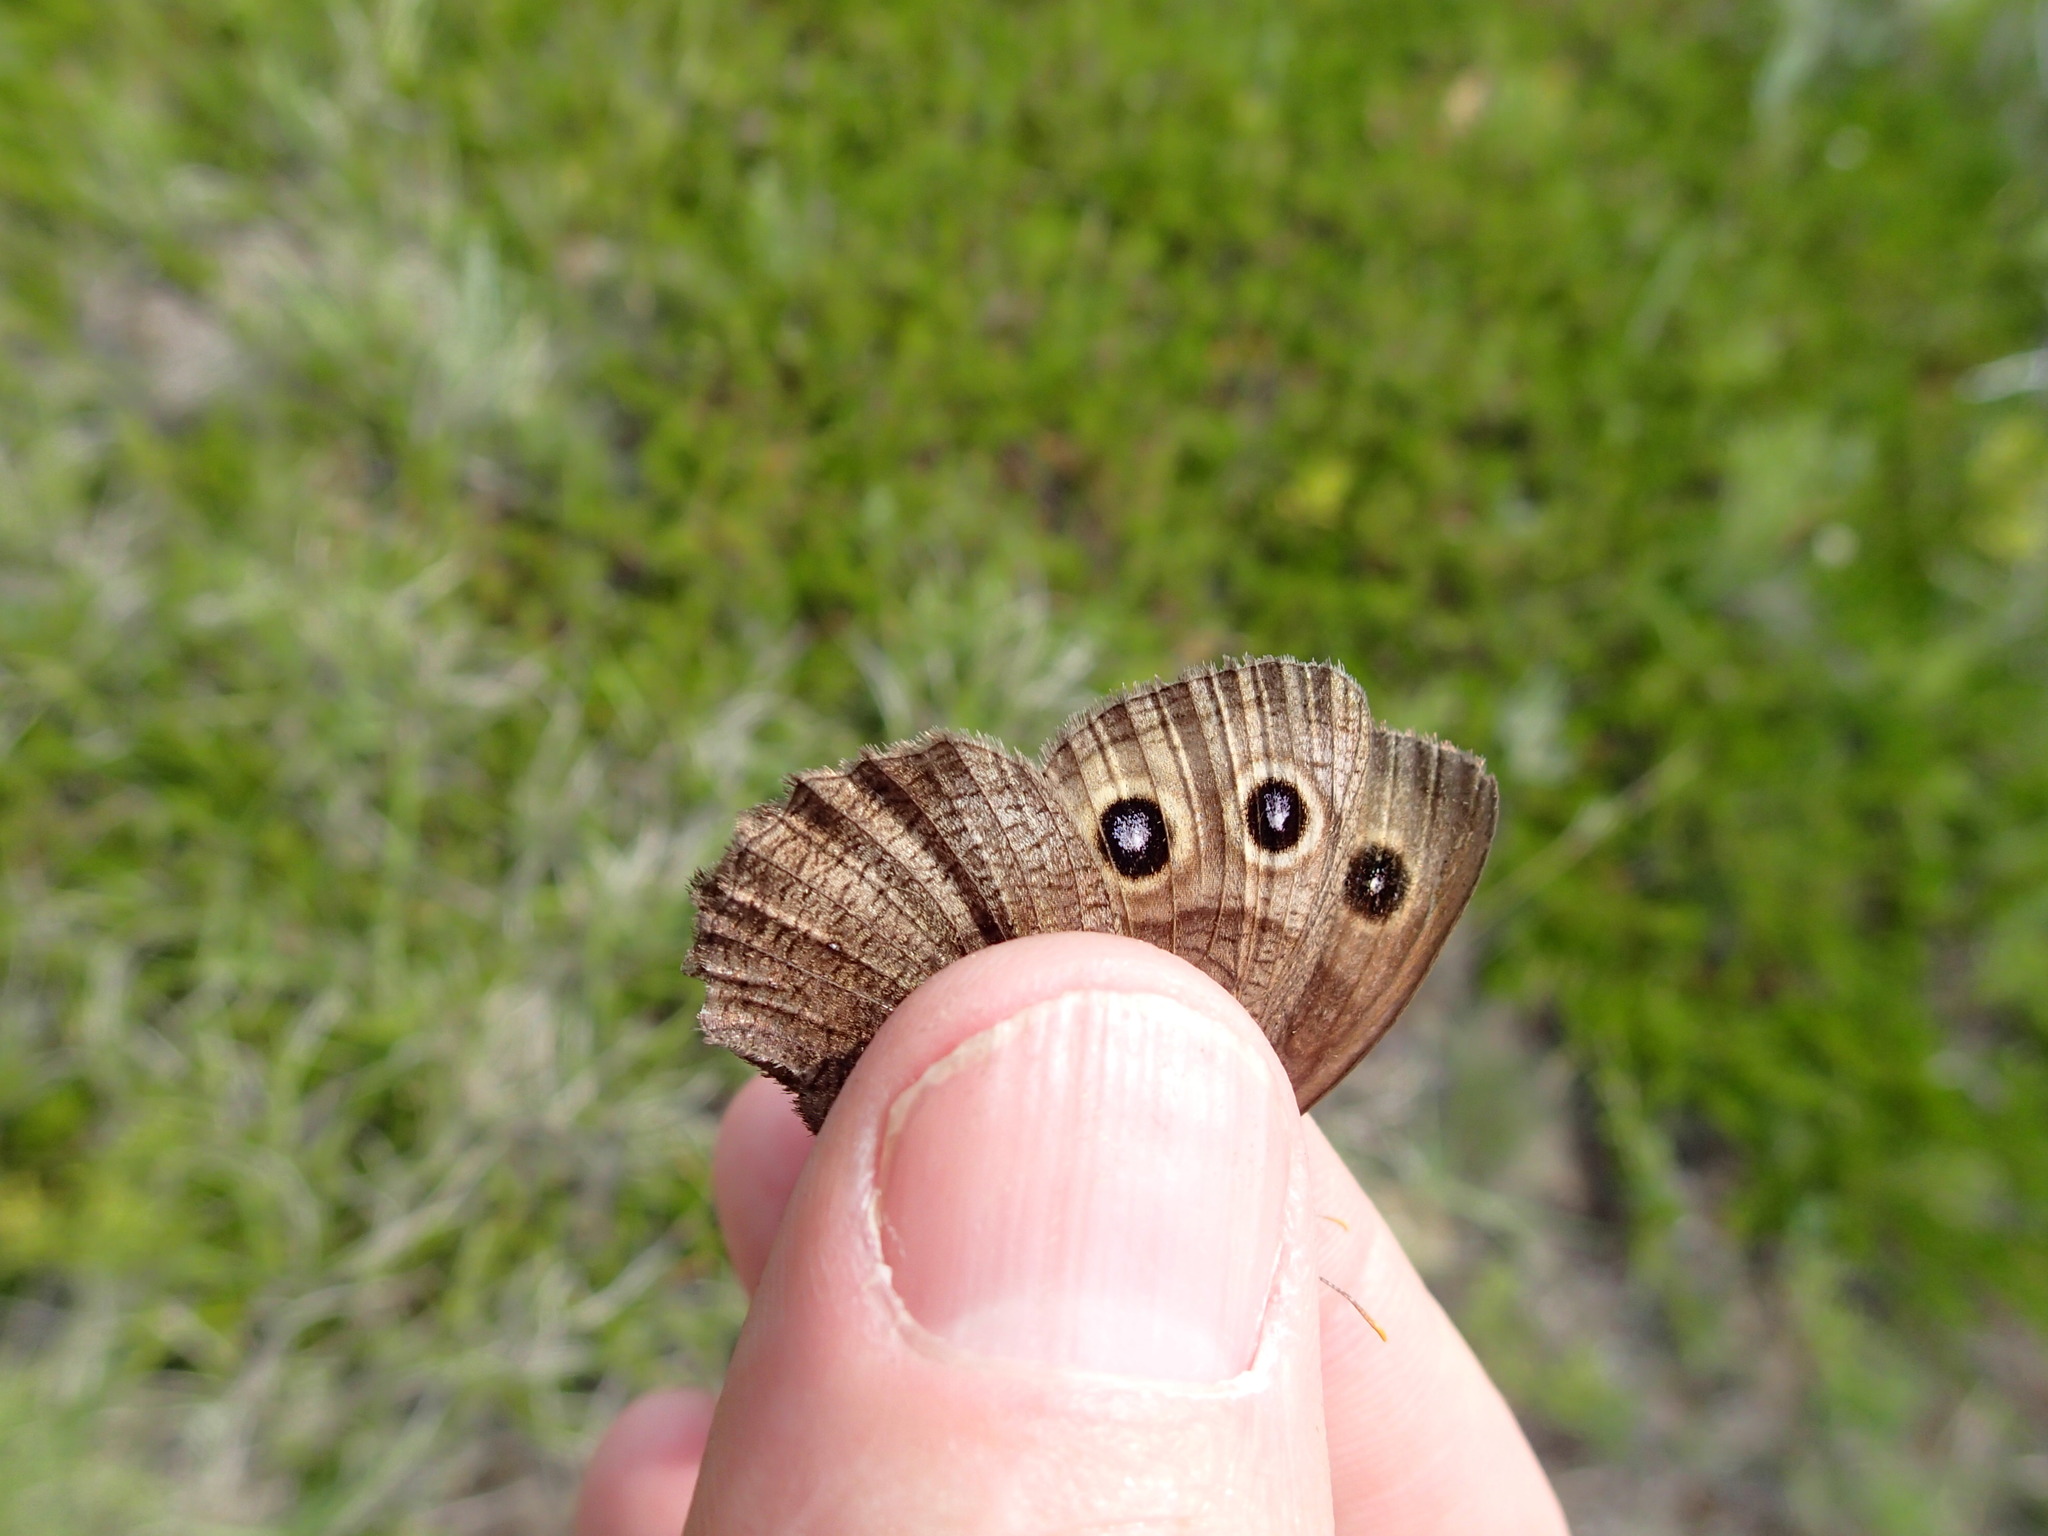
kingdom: Animalia
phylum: Arthropoda
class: Insecta
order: Lepidoptera
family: Nymphalidae
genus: Cercyonis
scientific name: Cercyonis pegala
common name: Common wood-nymph
